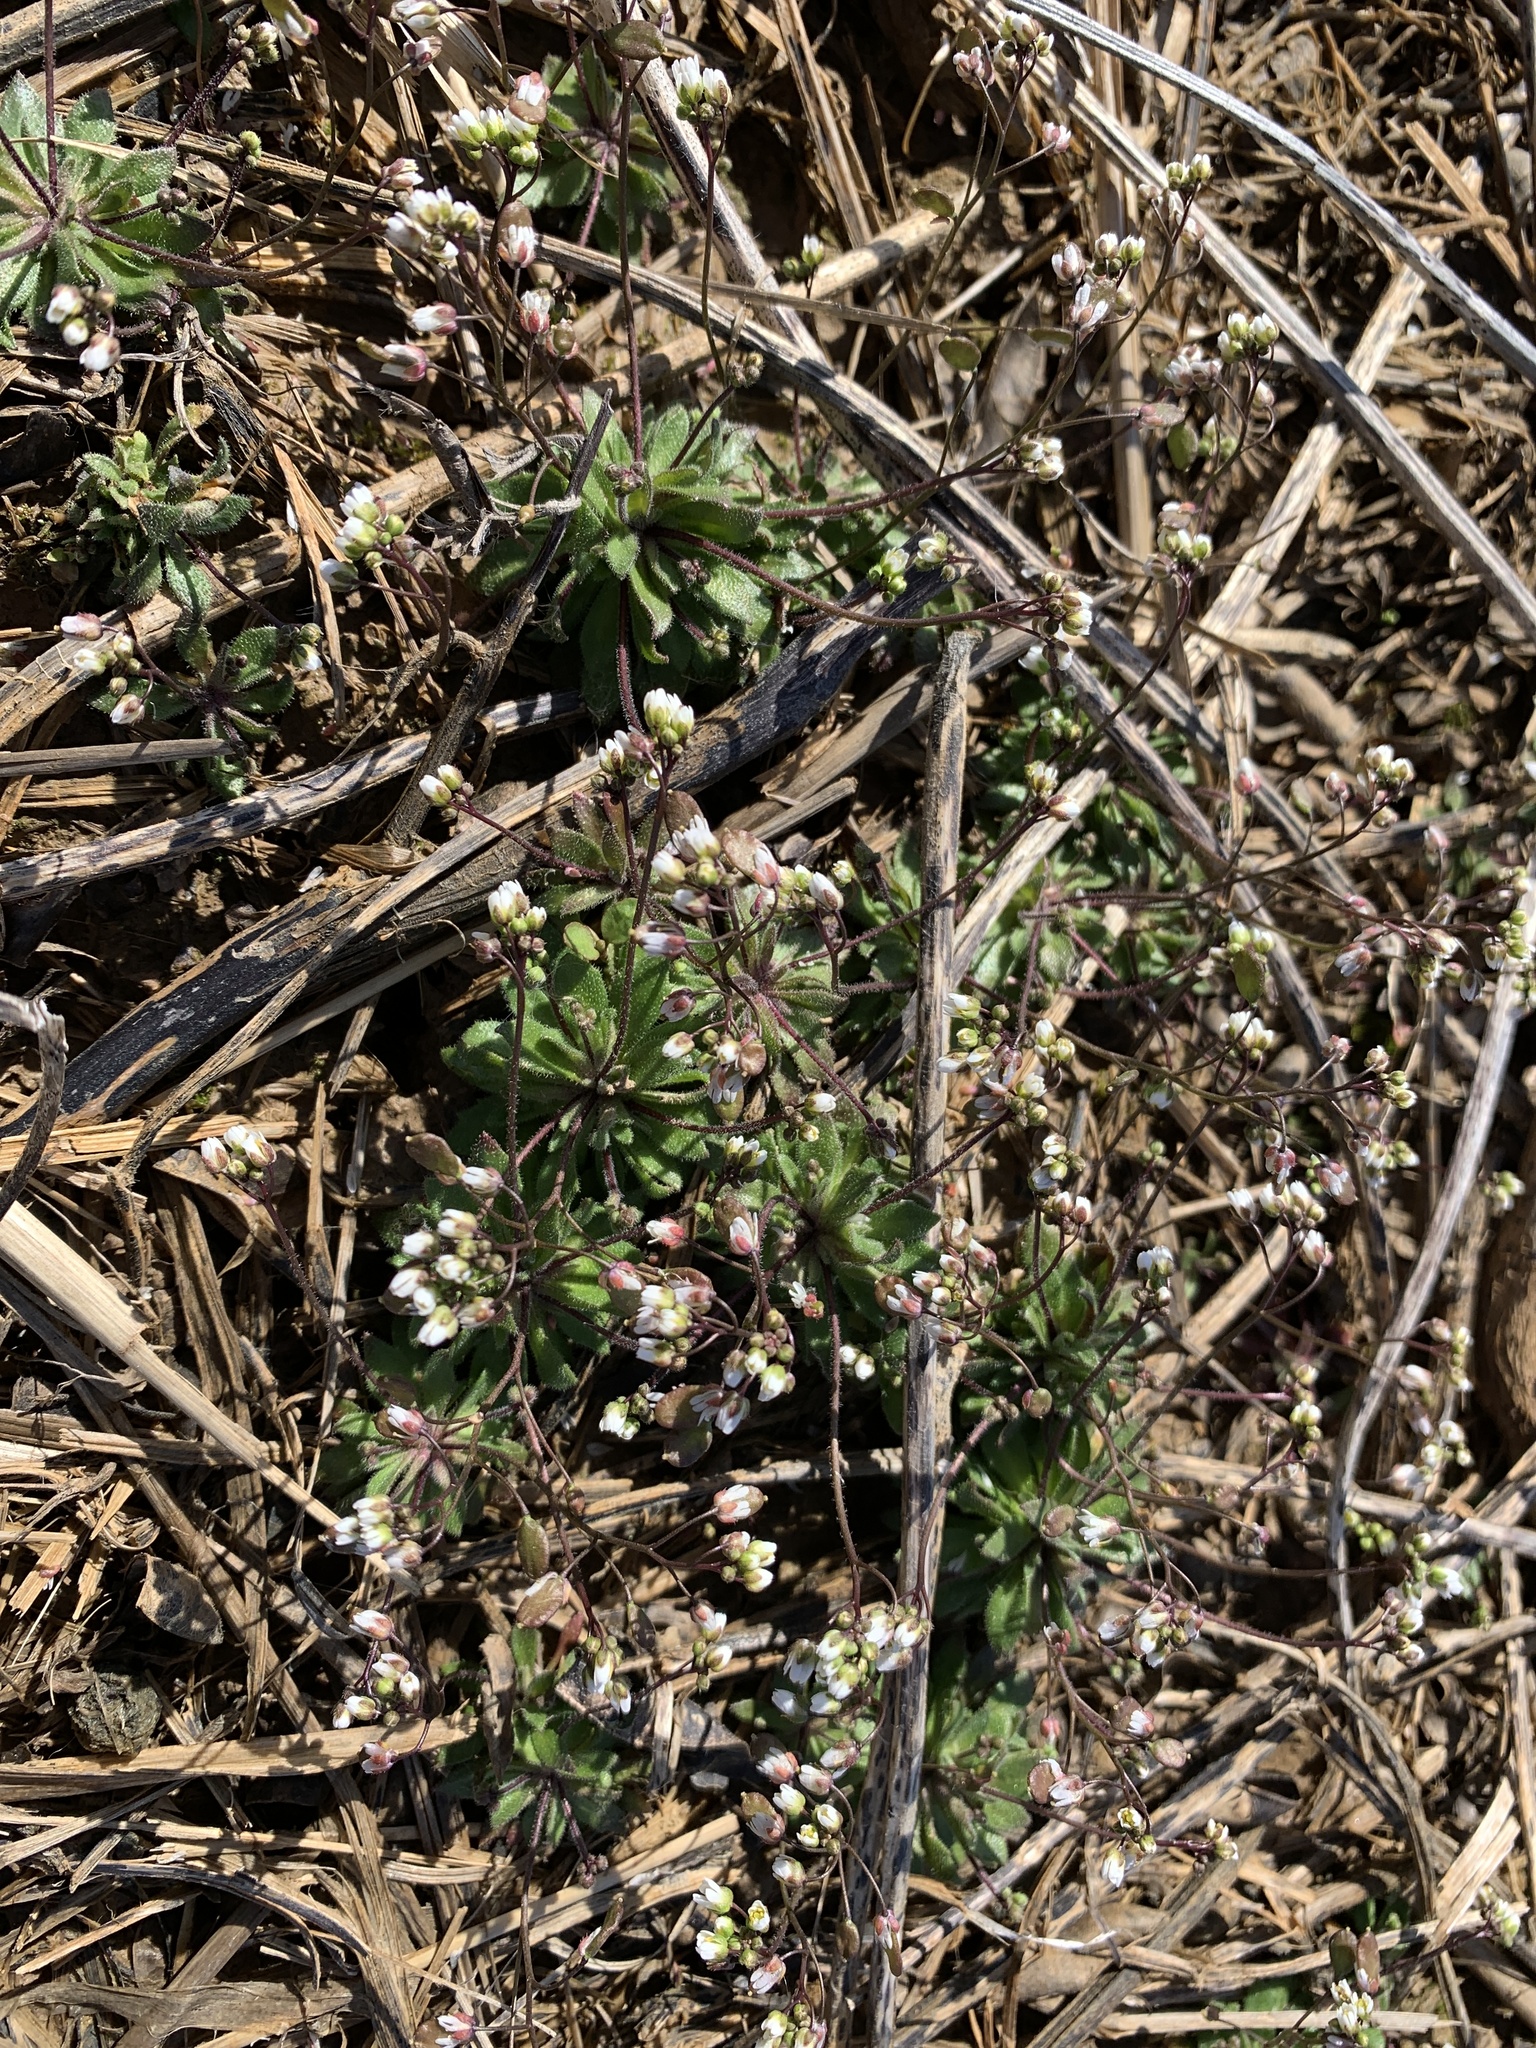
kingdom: Plantae
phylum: Tracheophyta
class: Magnoliopsida
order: Brassicales
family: Brassicaceae
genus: Draba
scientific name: Draba verna
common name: Spring draba
